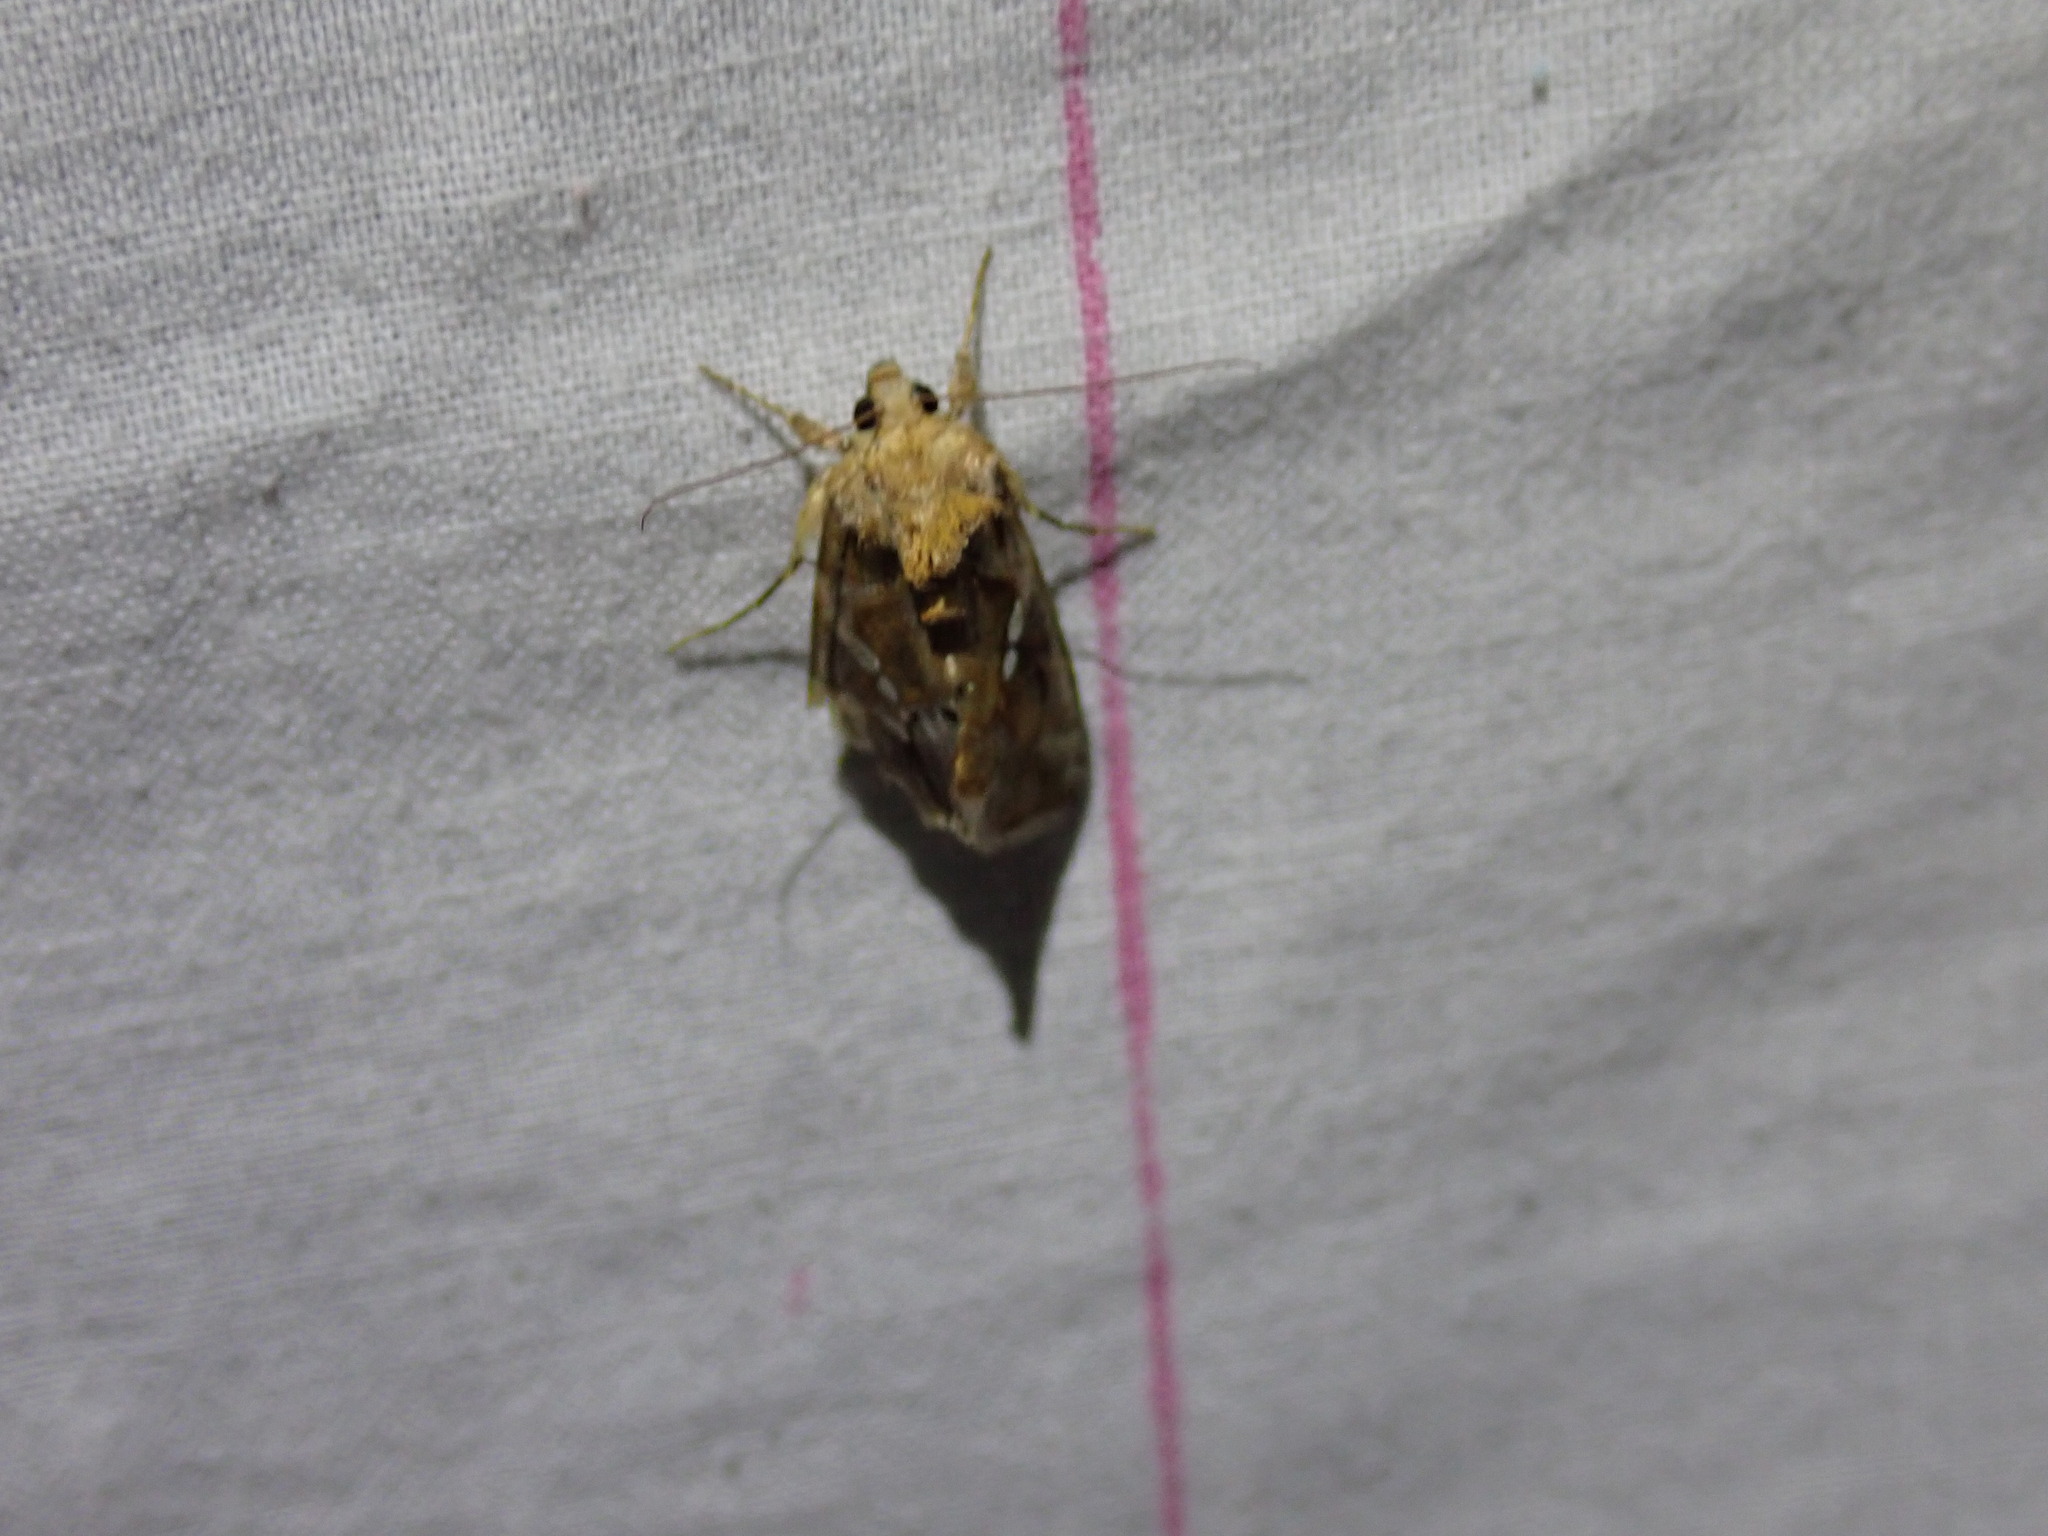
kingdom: Animalia
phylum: Arthropoda
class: Insecta
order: Lepidoptera
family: Noctuidae
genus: Chrysodeixis
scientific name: Chrysodeixis chalcites
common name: Golden twin-spot
